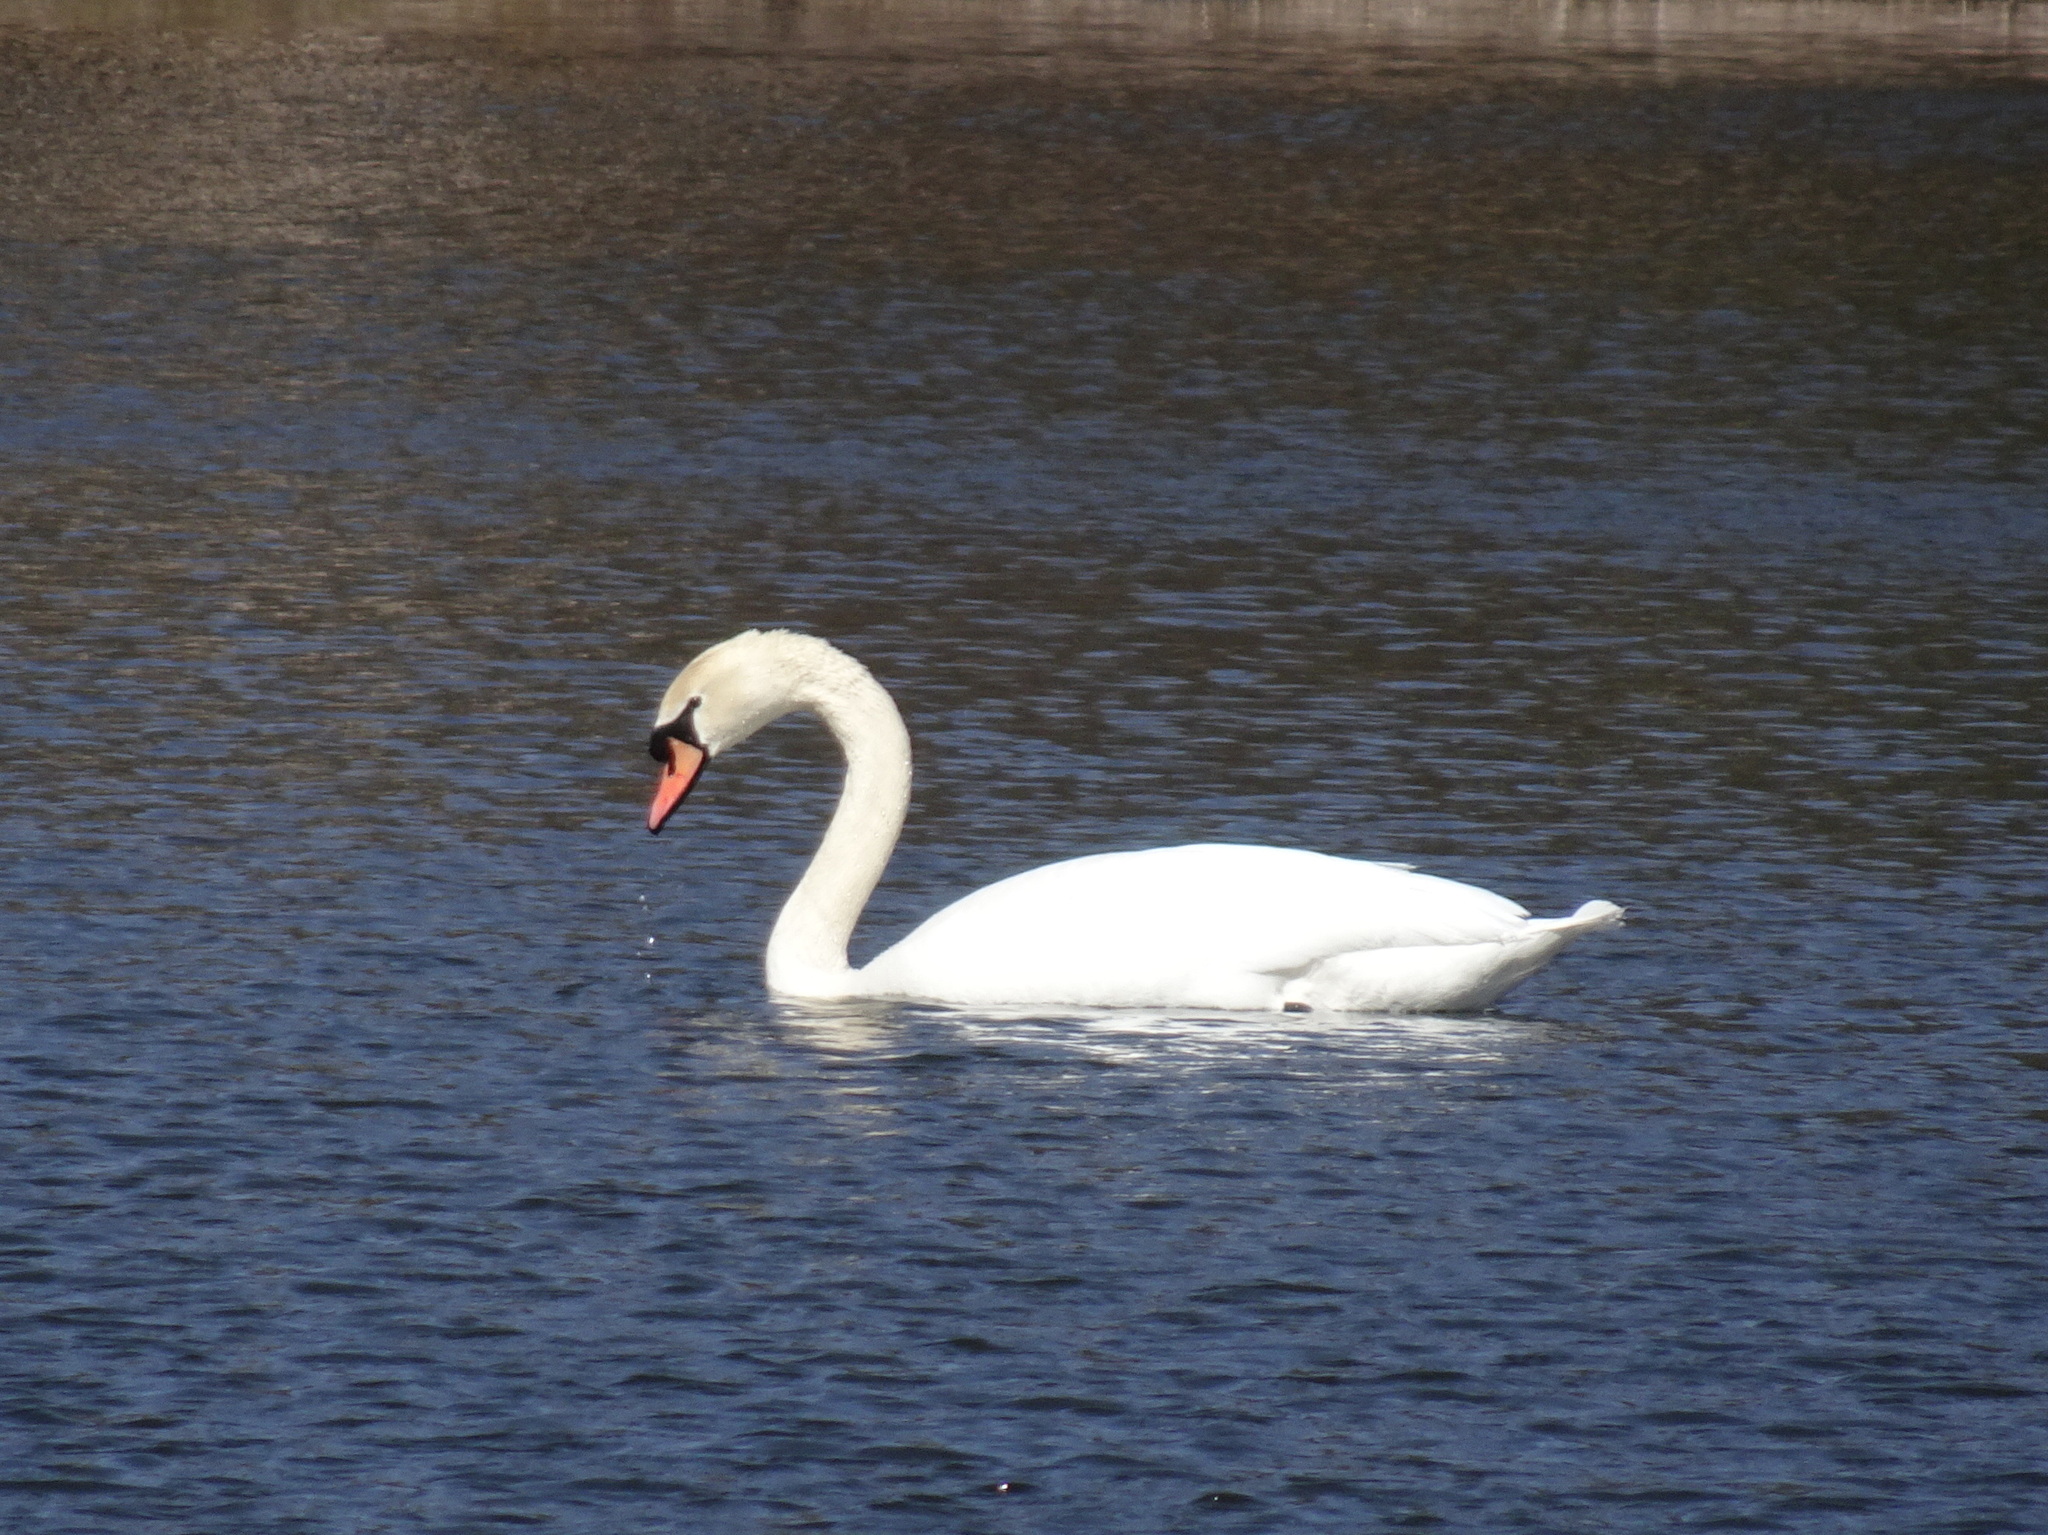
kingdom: Animalia
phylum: Chordata
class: Aves
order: Anseriformes
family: Anatidae
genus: Cygnus
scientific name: Cygnus olor
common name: Mute swan
